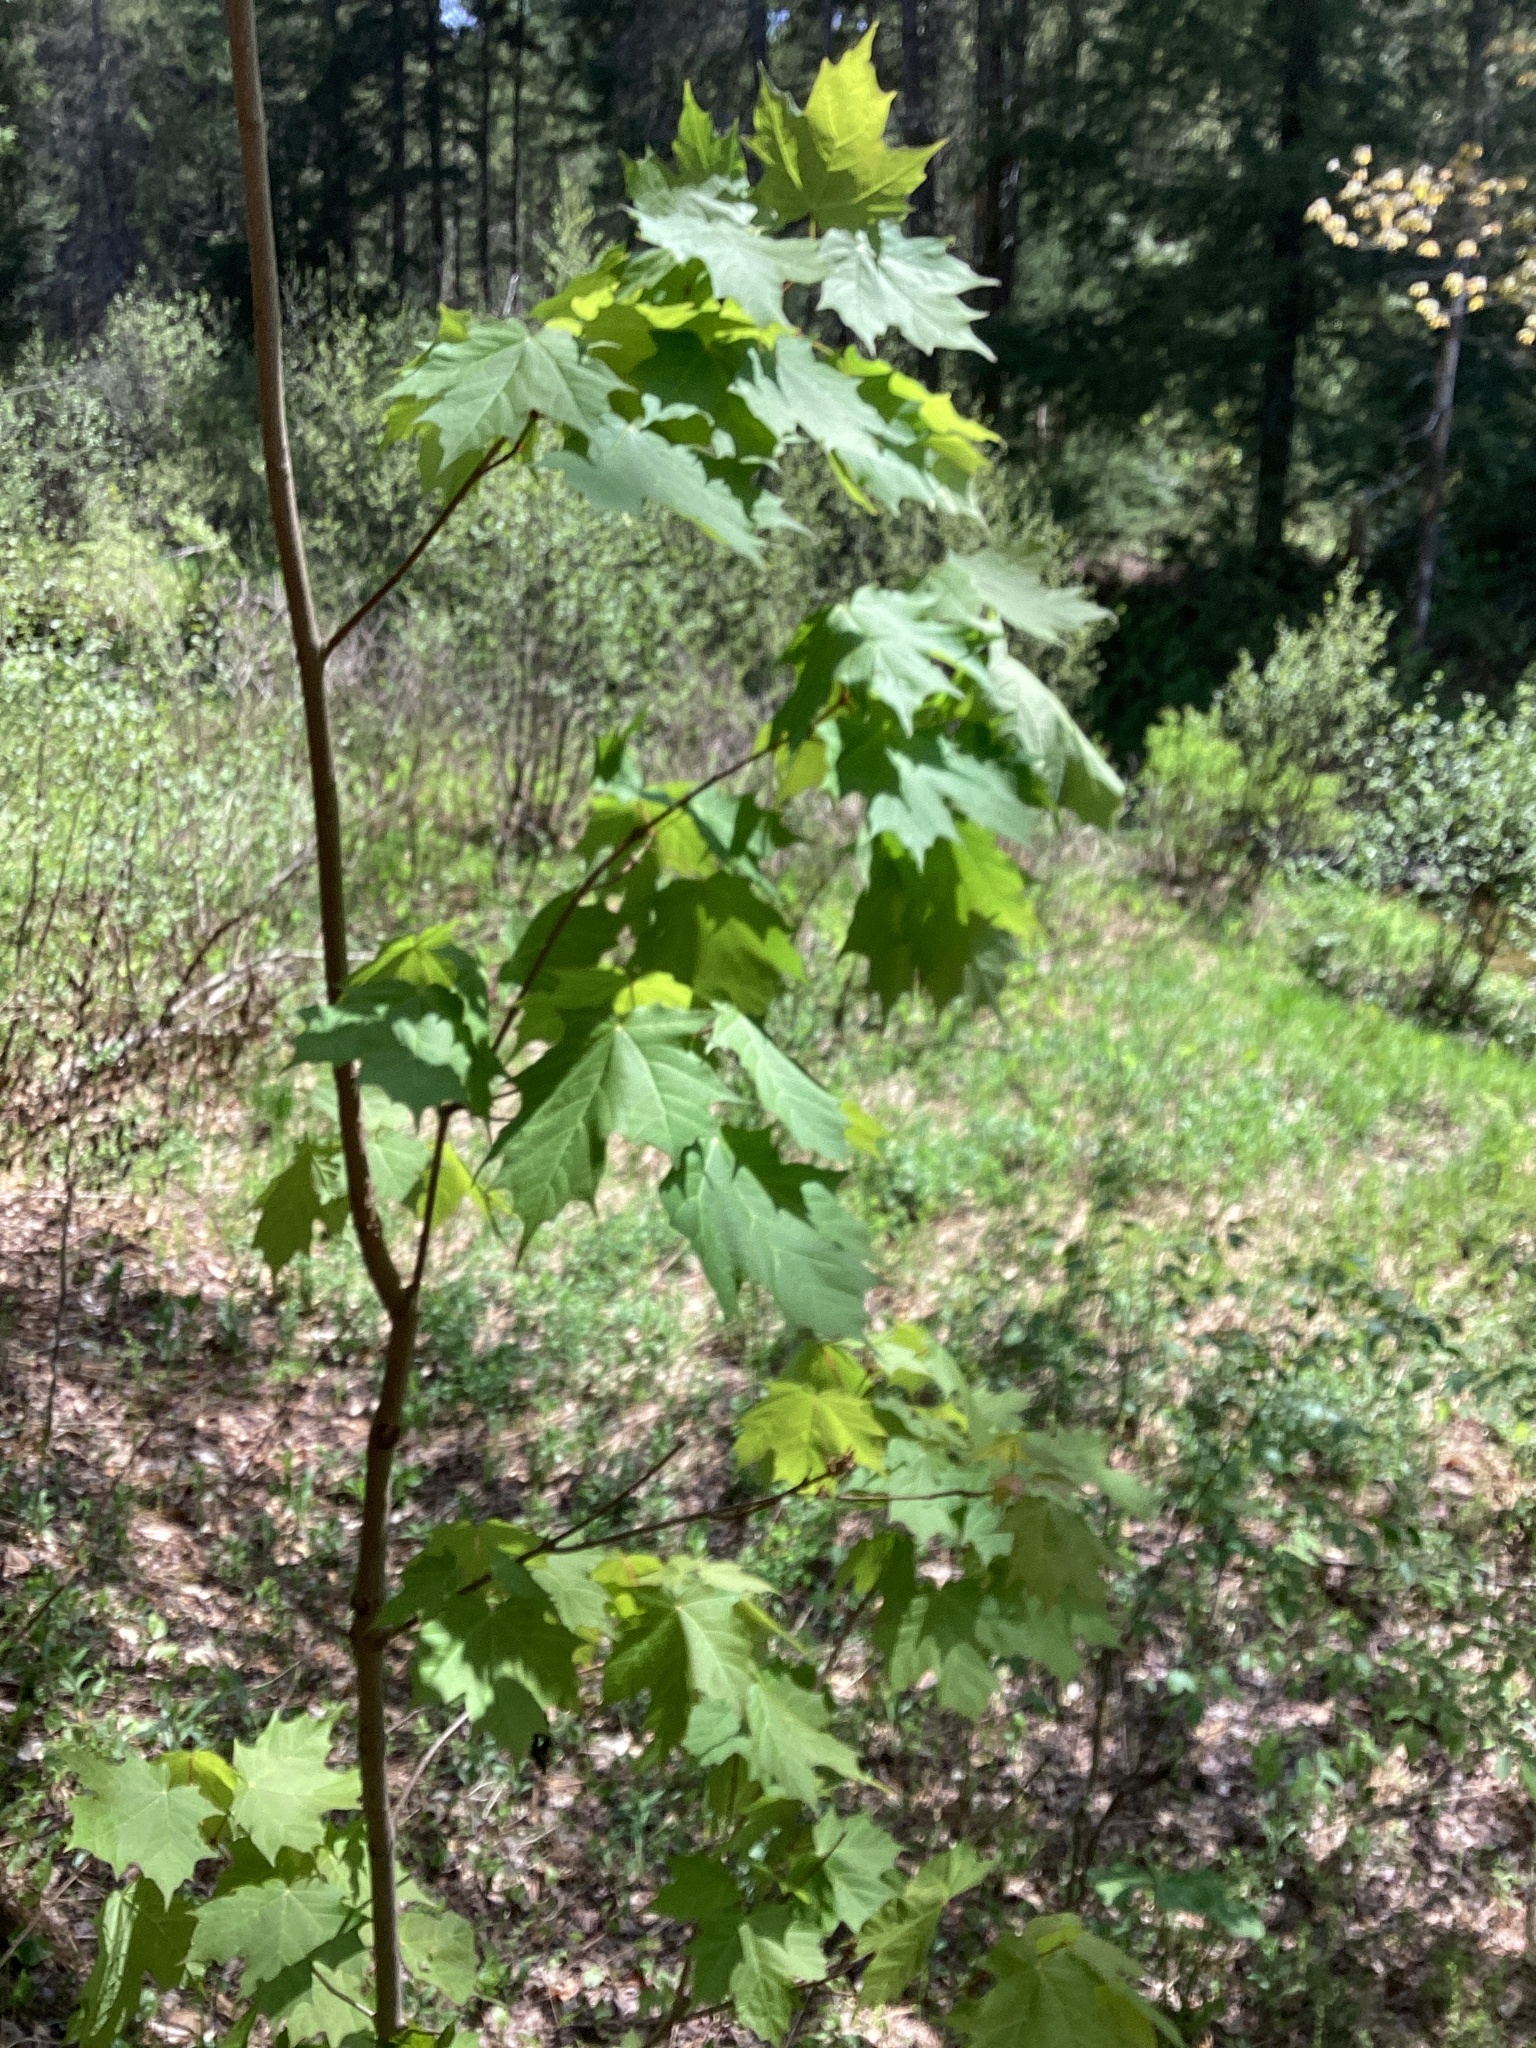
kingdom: Plantae
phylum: Tracheophyta
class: Magnoliopsida
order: Sapindales
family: Sapindaceae
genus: Acer
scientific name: Acer saccharum
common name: Sugar maple
